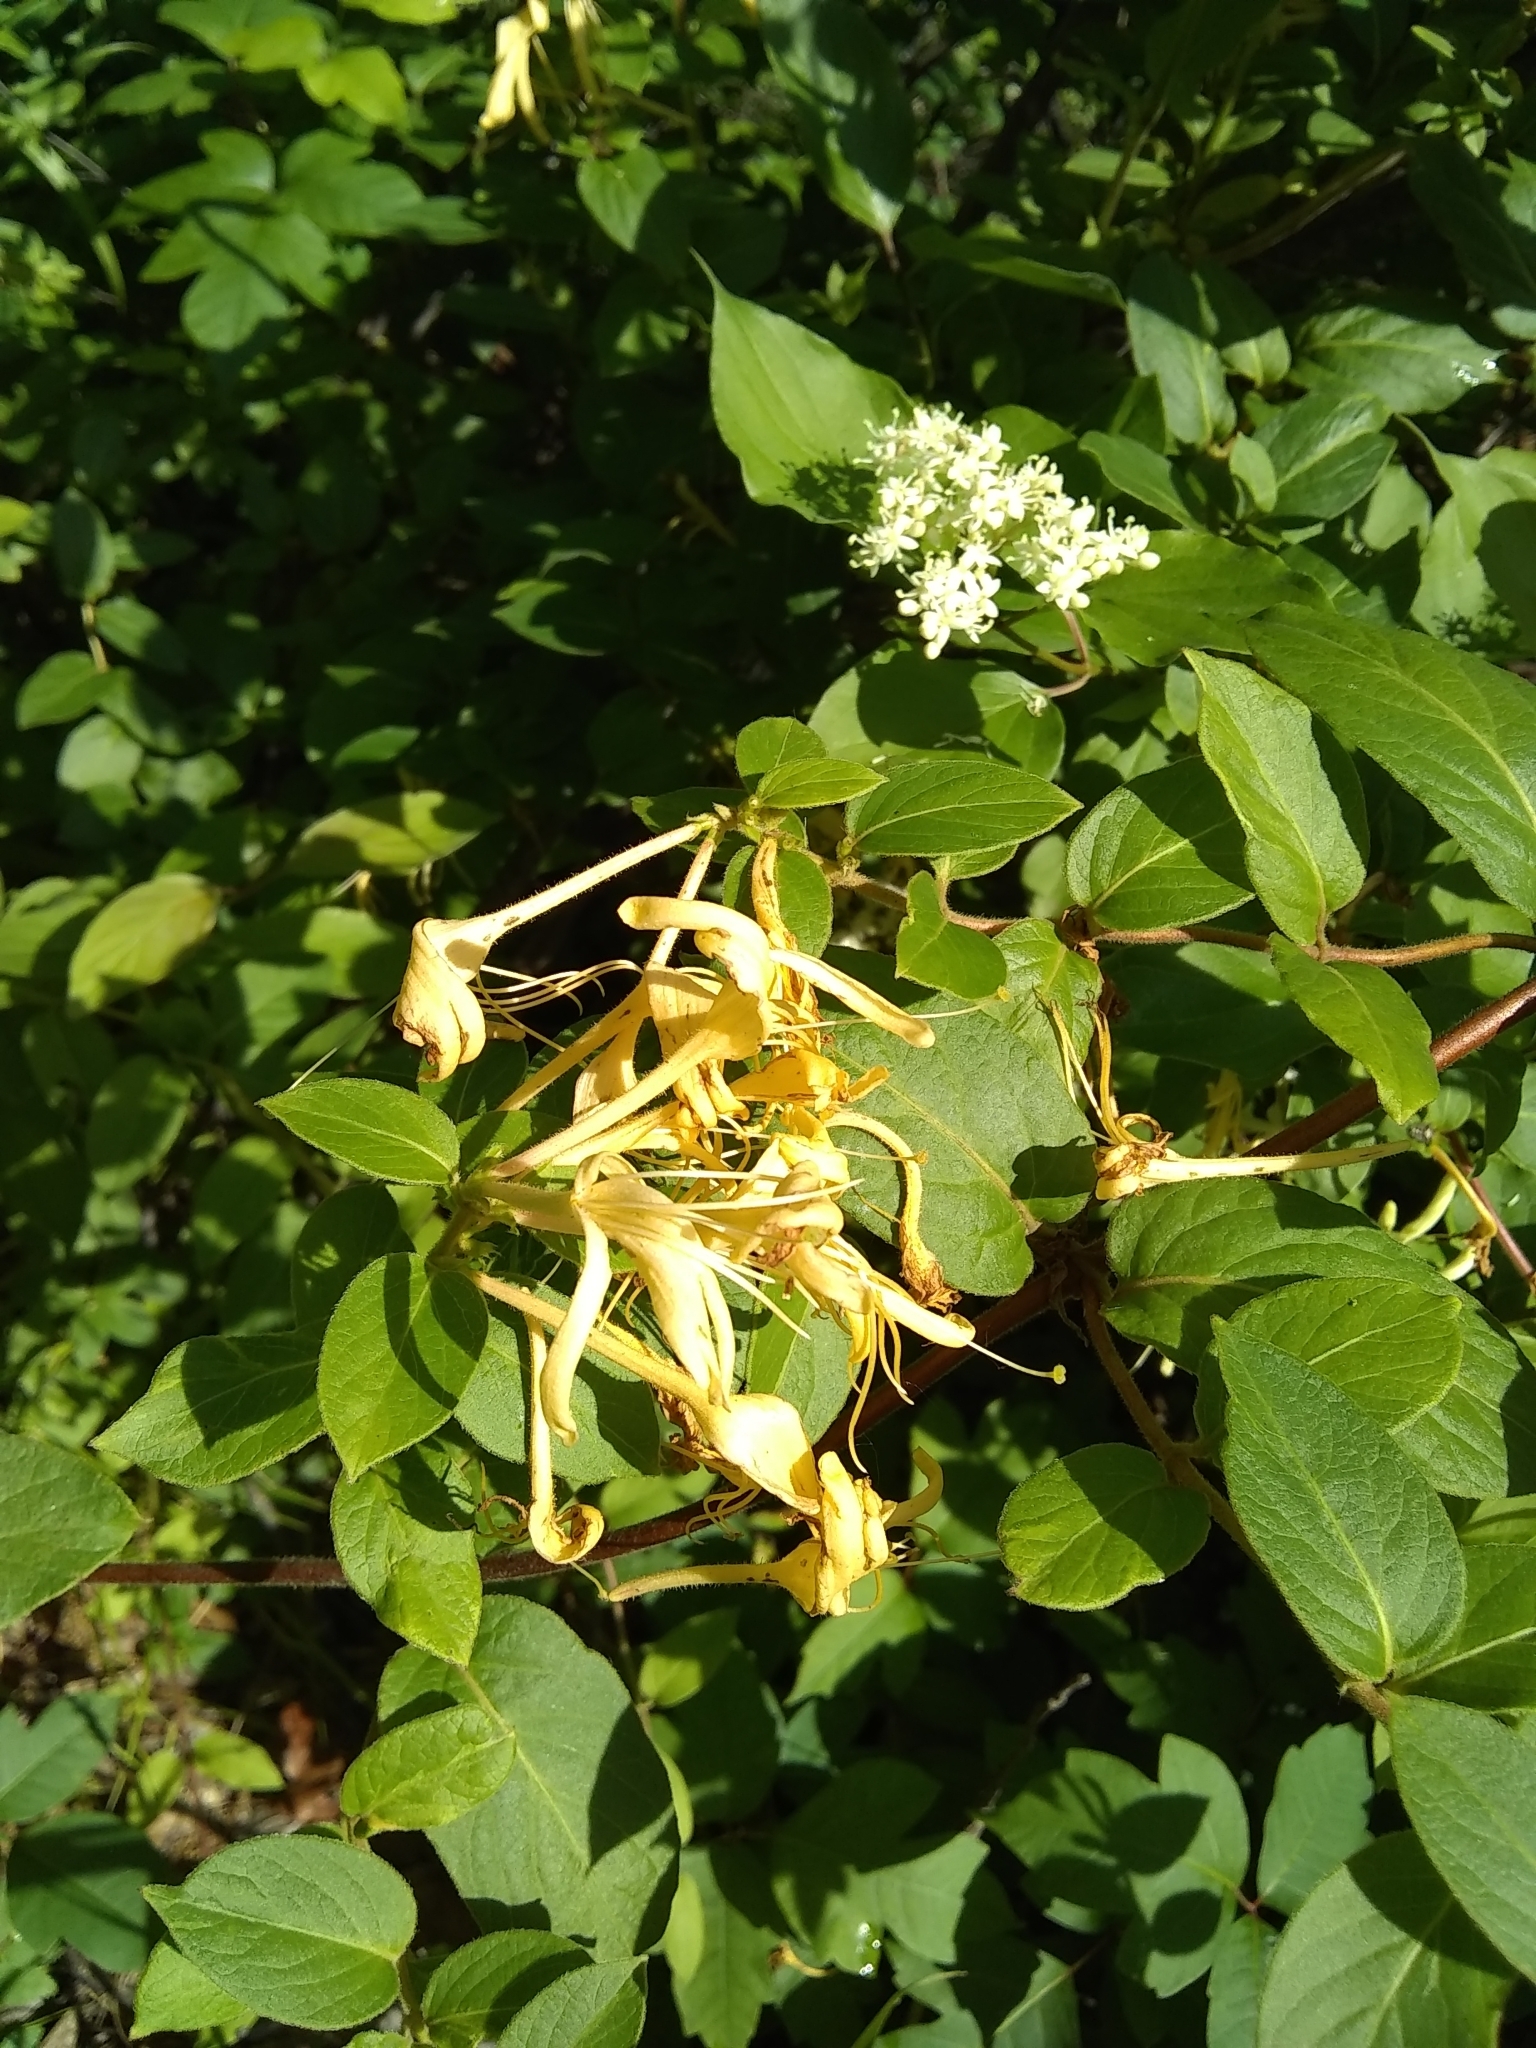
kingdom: Plantae
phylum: Tracheophyta
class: Magnoliopsida
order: Dipsacales
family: Caprifoliaceae
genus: Lonicera
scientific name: Lonicera japonica
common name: Japanese honeysuckle
